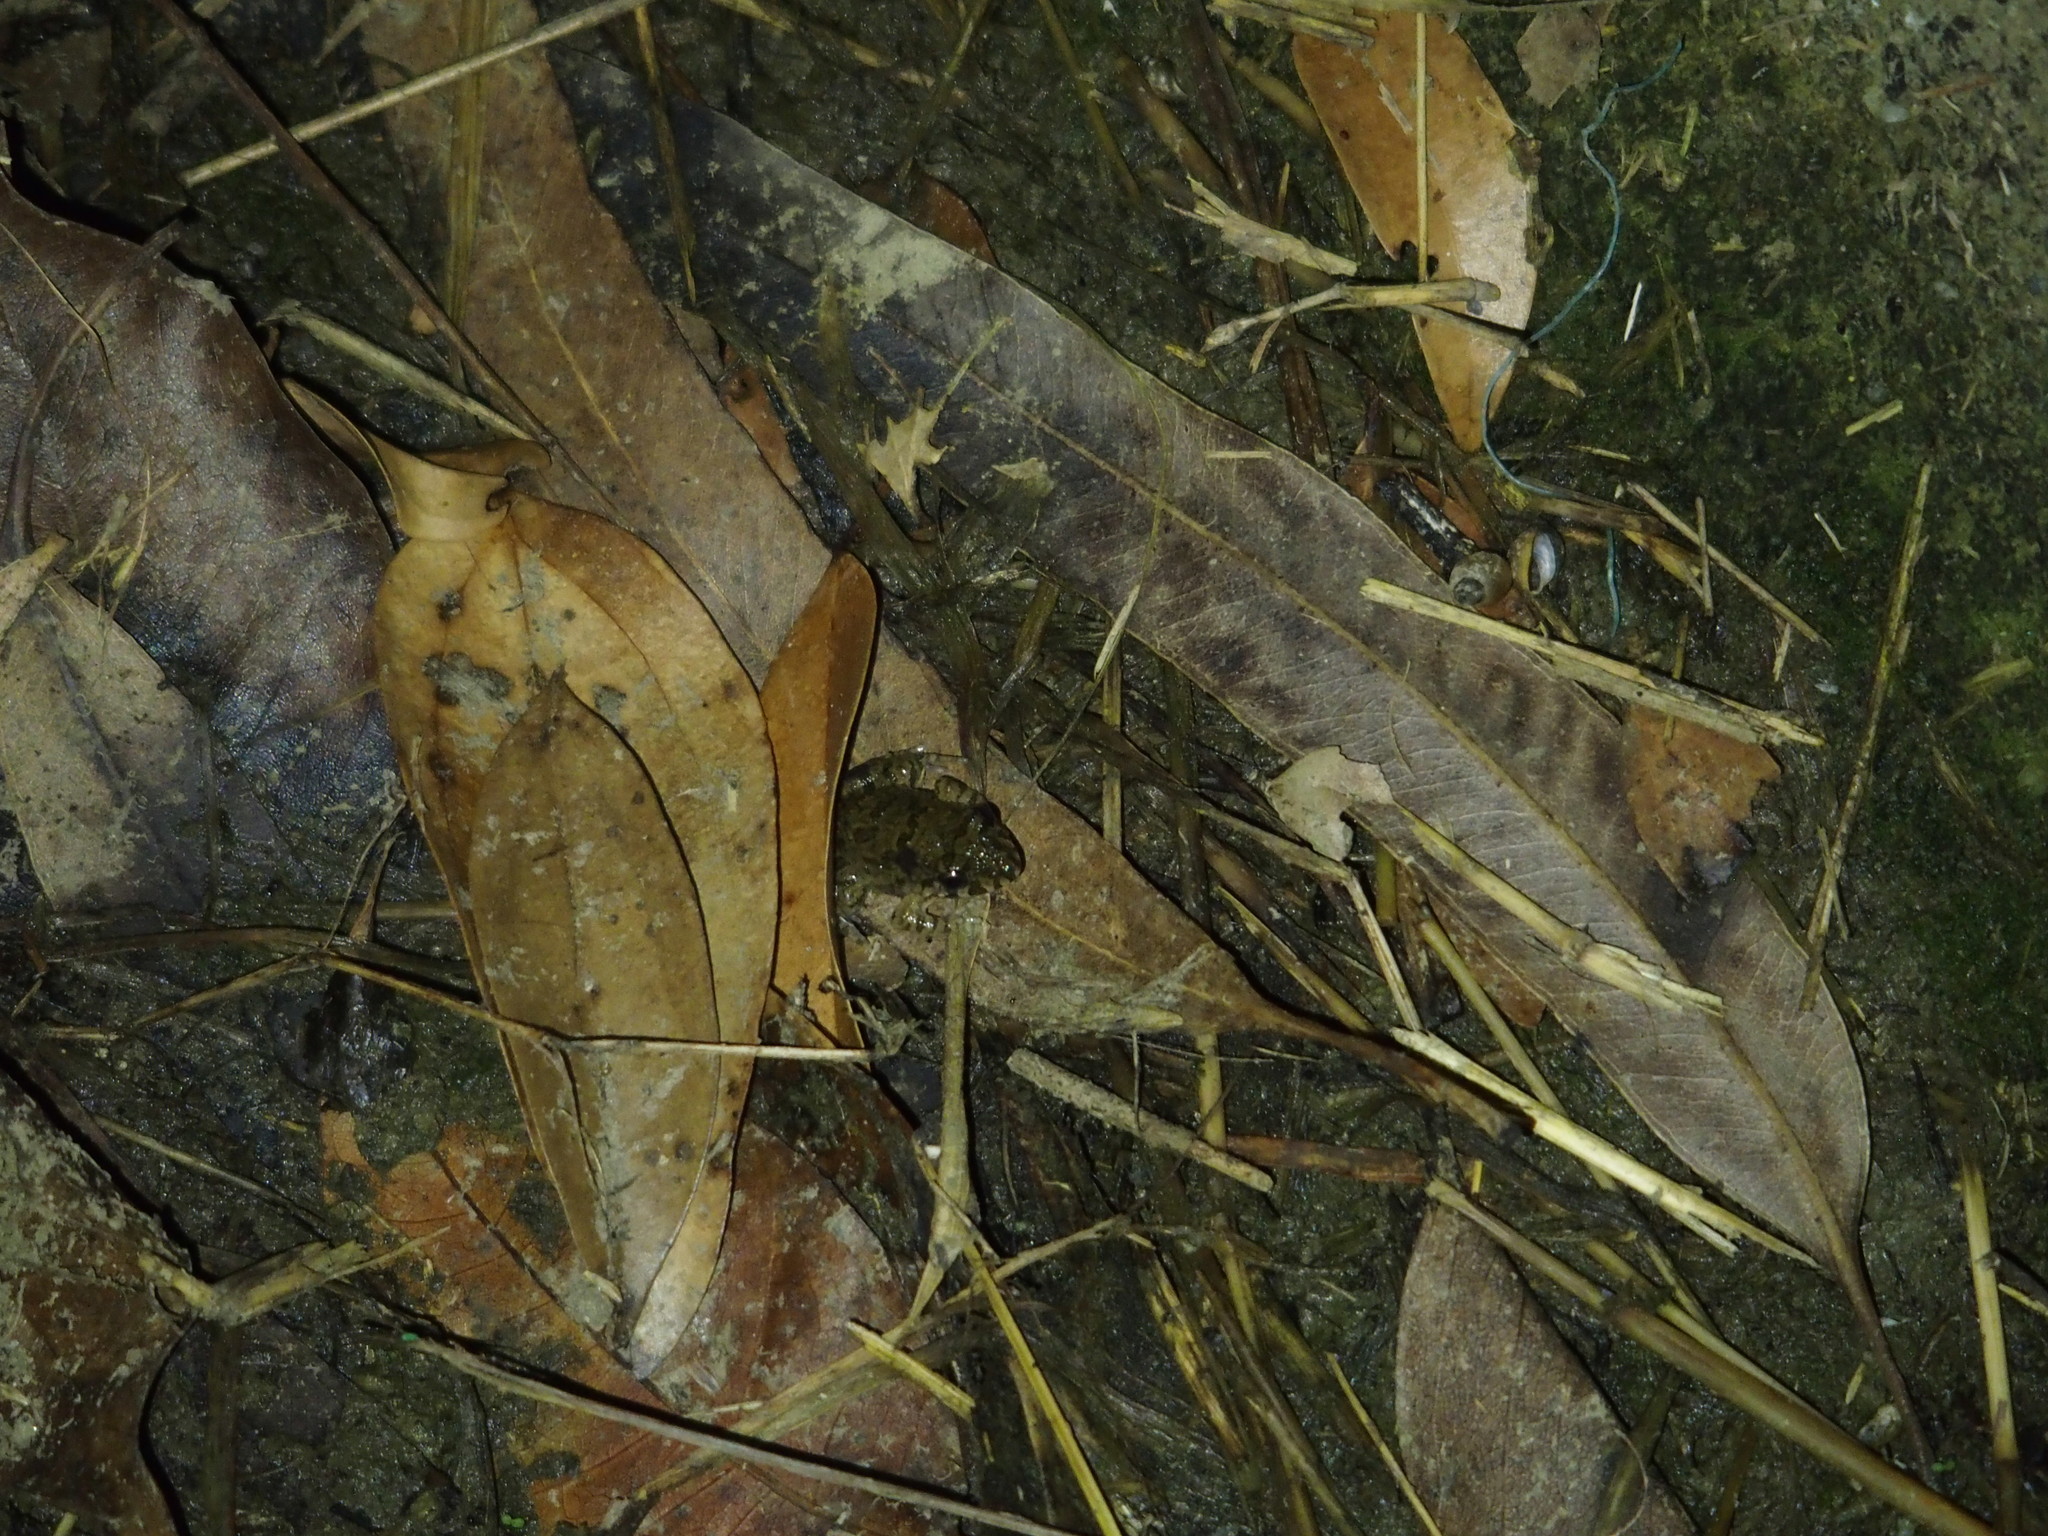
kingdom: Animalia
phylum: Chordata
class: Amphibia
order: Anura
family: Dicroglossidae
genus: Fejervarya
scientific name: Fejervarya limnocharis
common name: Asian grass frog/common pond frog/field frog/grass frog/indian rice frog
